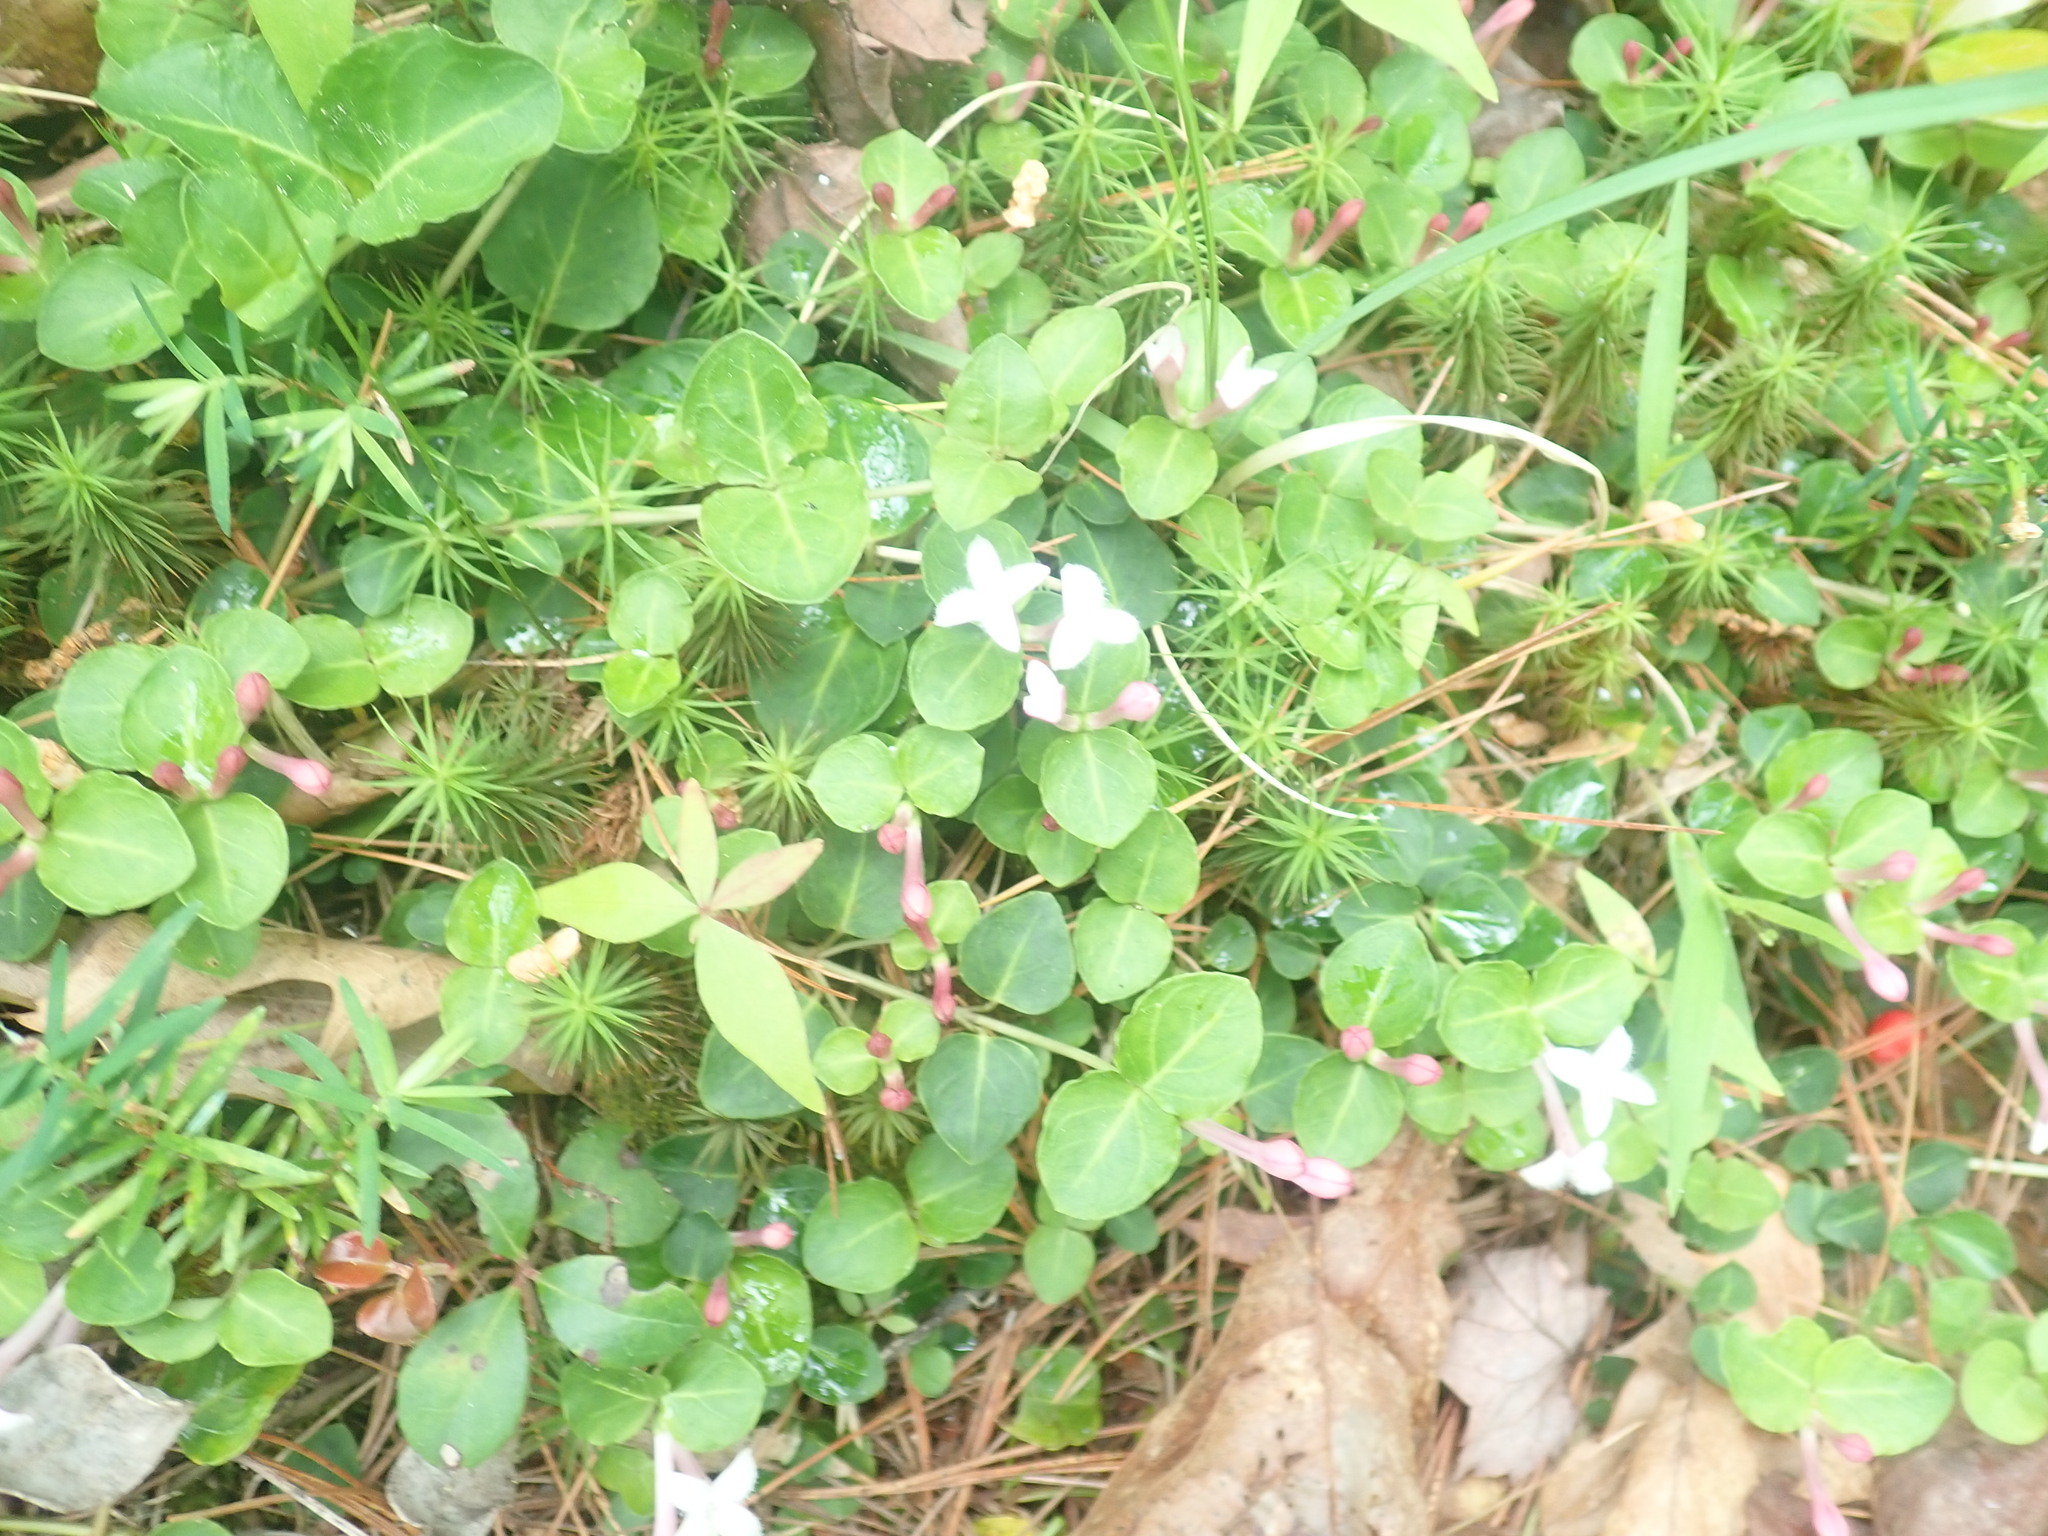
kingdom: Plantae
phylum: Tracheophyta
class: Magnoliopsida
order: Gentianales
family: Rubiaceae
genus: Mitchella
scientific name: Mitchella repens
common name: Partridge-berry
